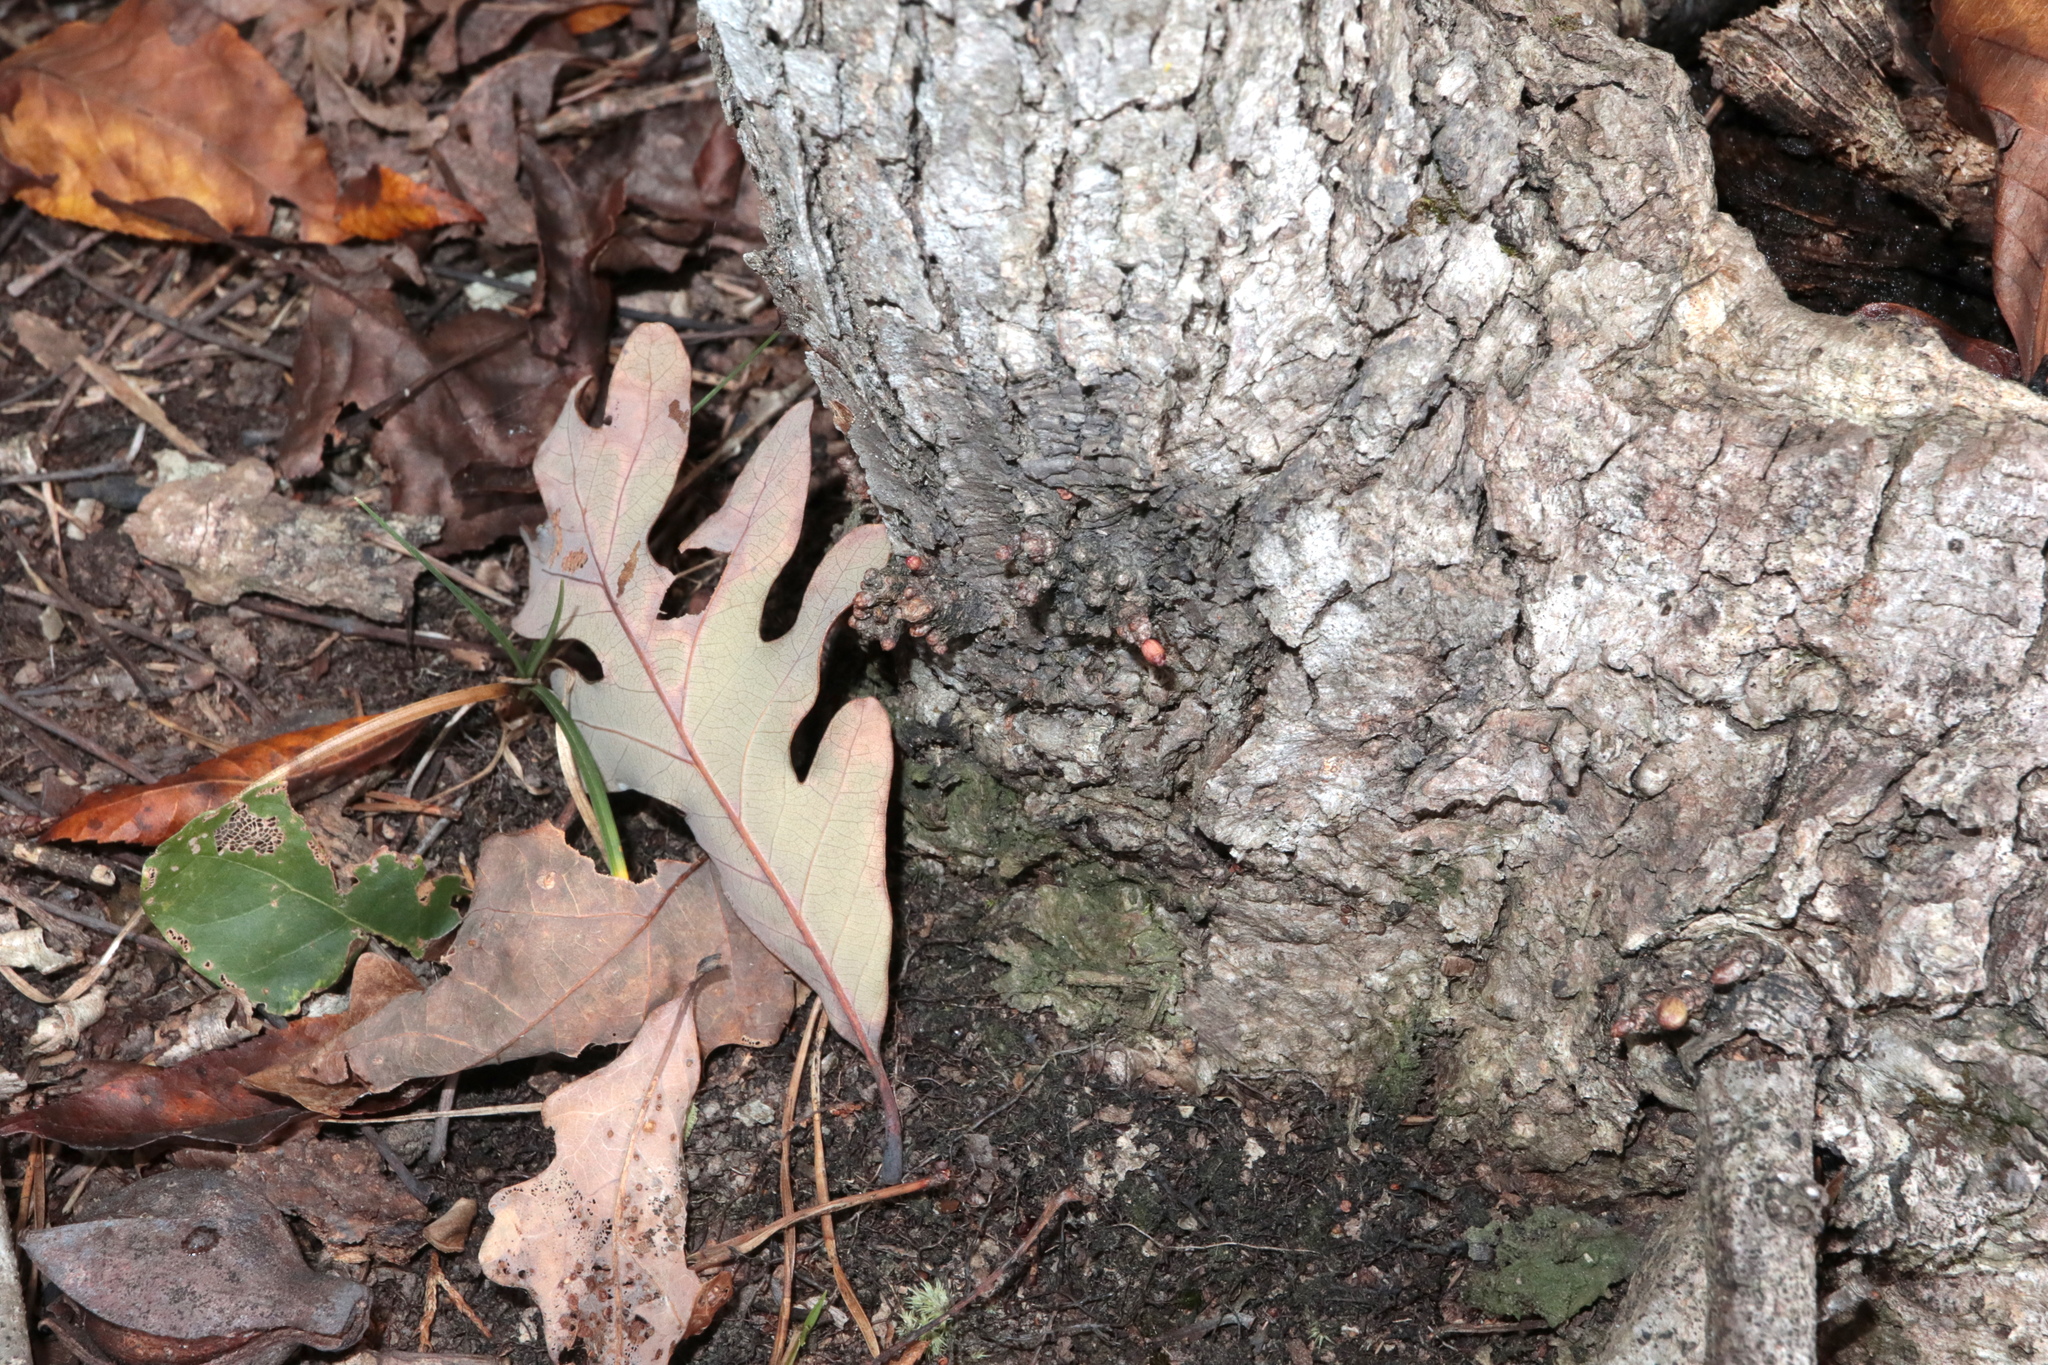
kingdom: Animalia
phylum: Arthropoda
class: Insecta
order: Hymenoptera
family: Cynipidae
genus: Andricus
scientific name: Andricus
